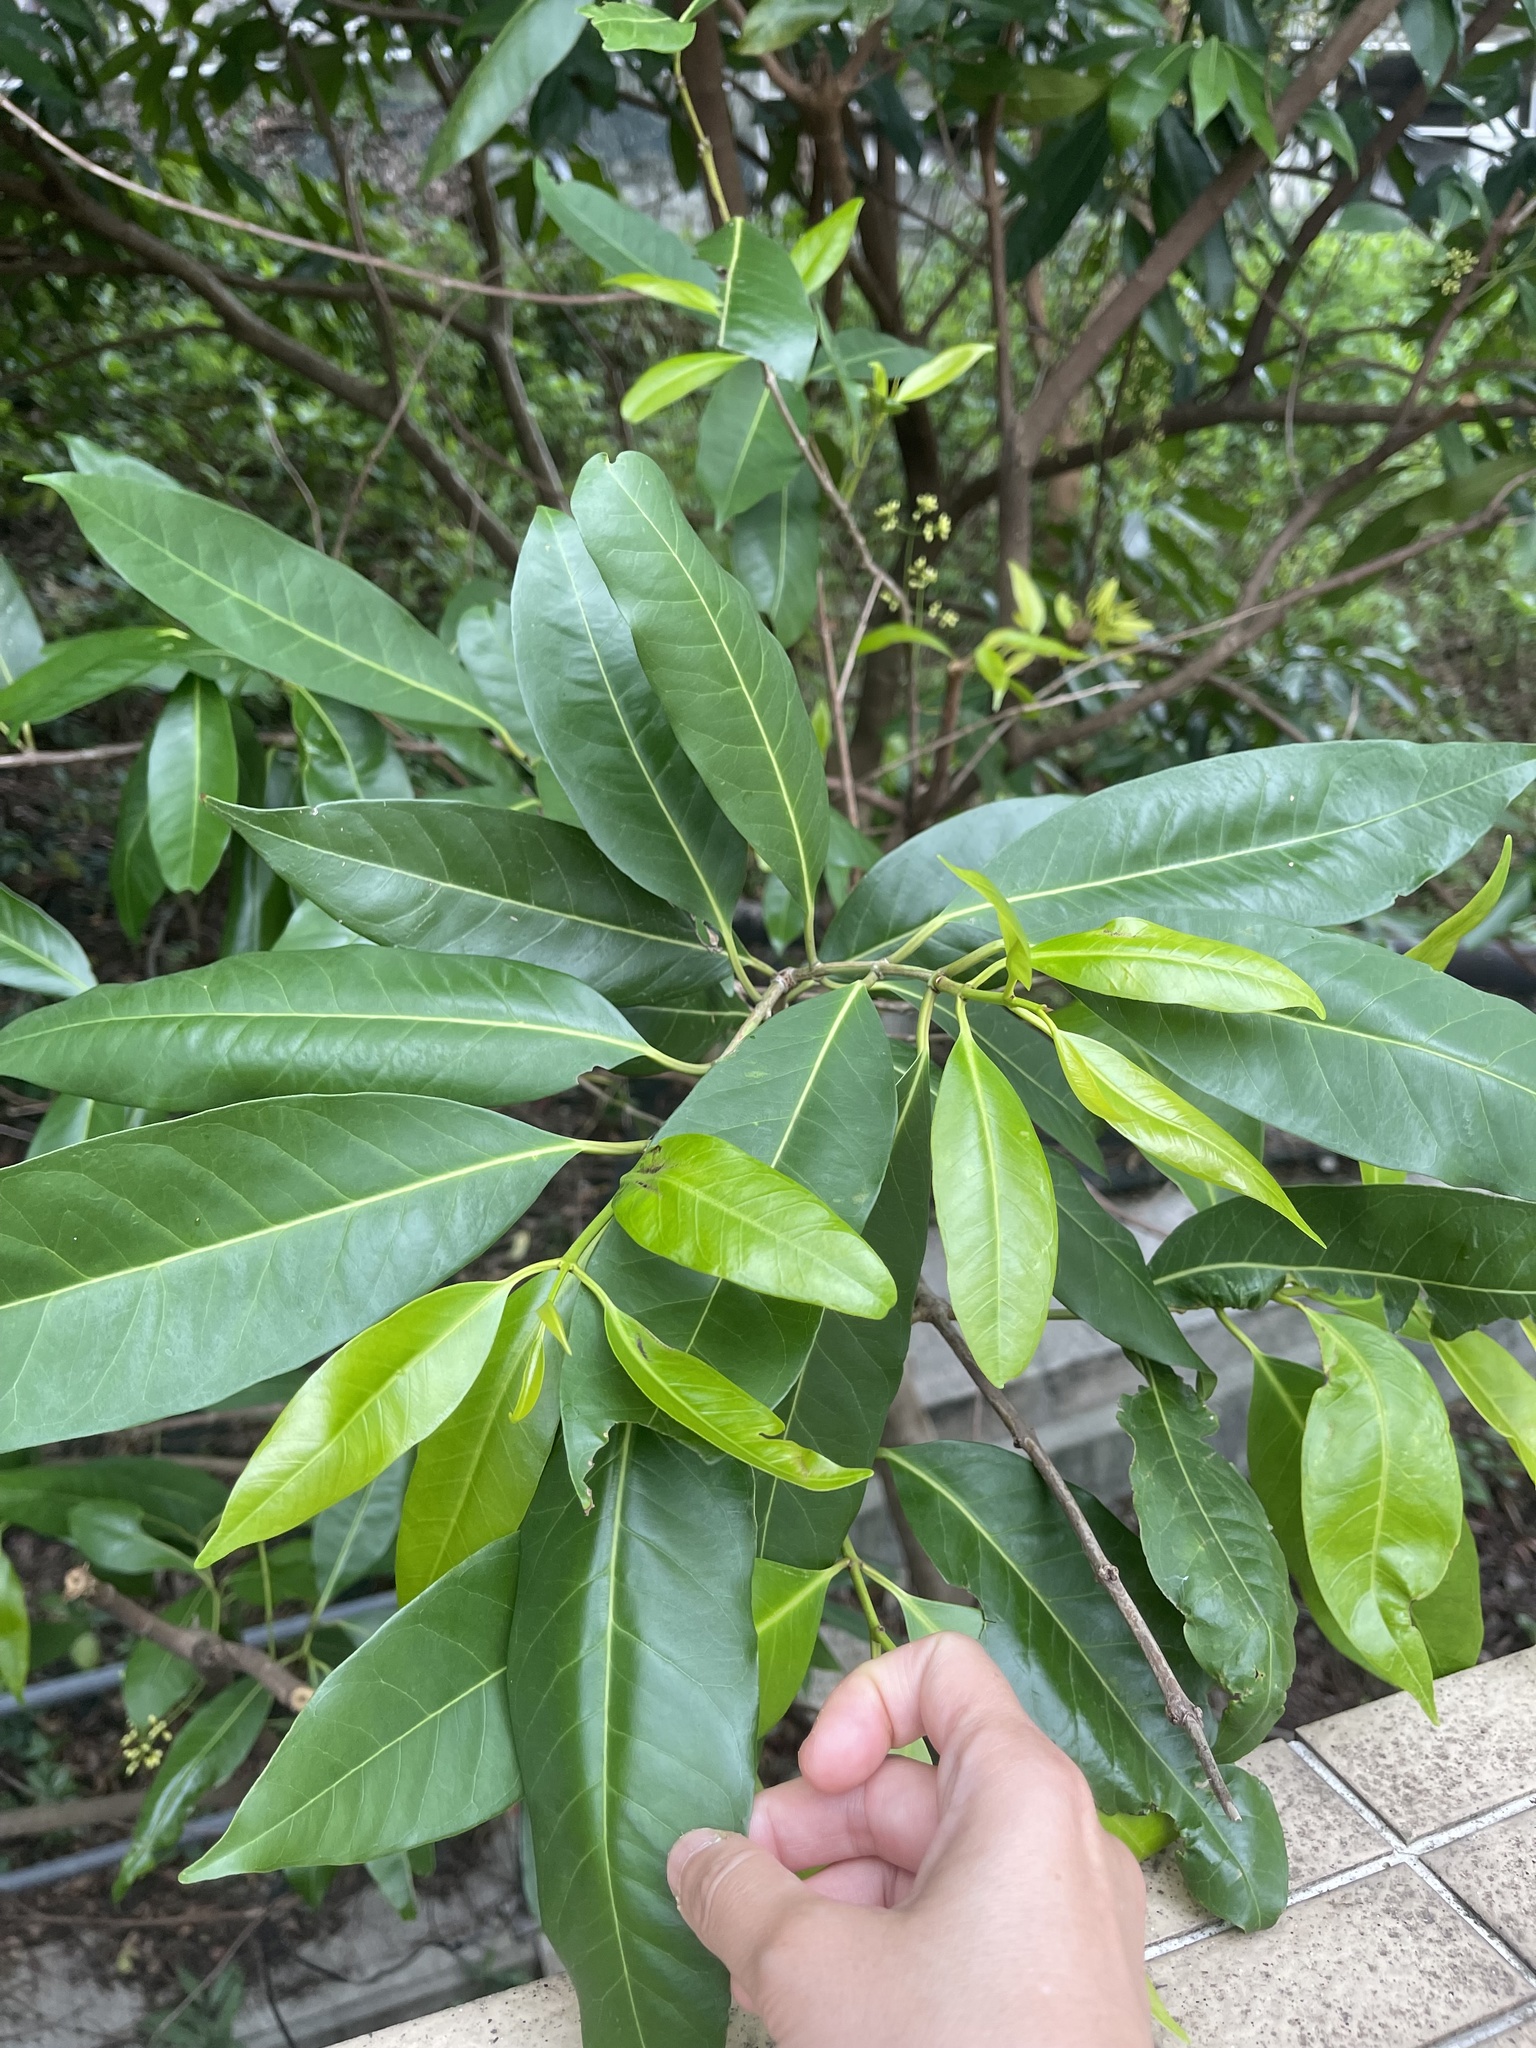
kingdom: Plantae
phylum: Tracheophyta
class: Magnoliopsida
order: Myrtales
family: Myrtaceae
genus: Syzygium
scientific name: Syzygium nervosum
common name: Daly river satinash
